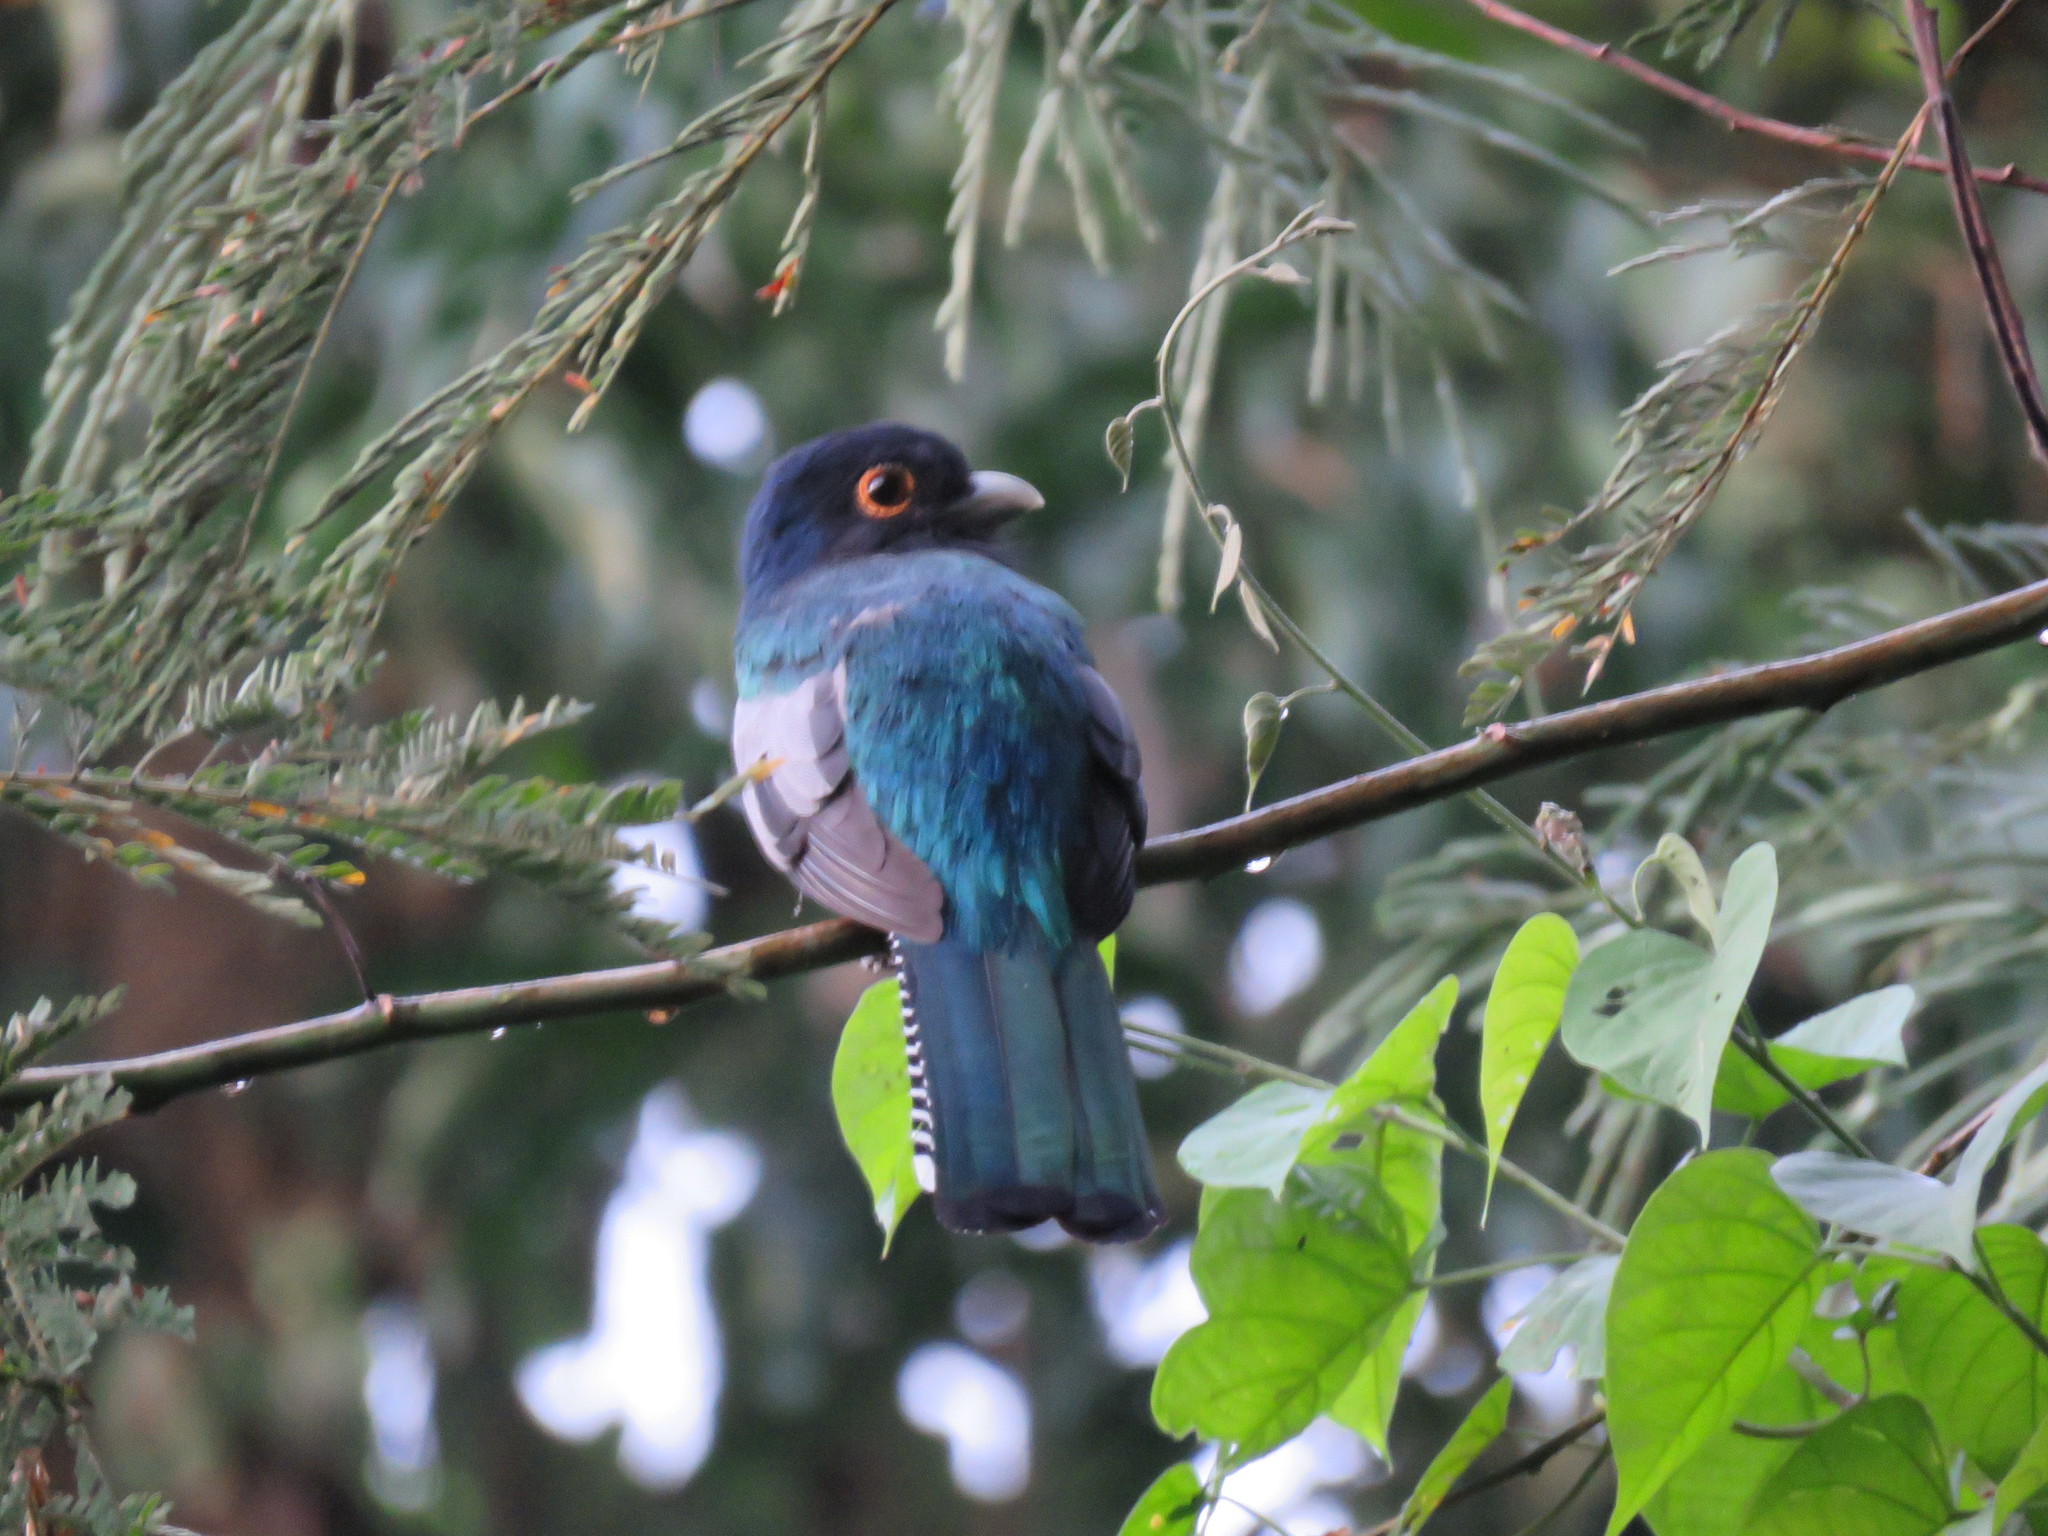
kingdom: Animalia
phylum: Chordata
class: Aves
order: Trogoniformes
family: Trogonidae
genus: Trogon
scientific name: Trogon curucui
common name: Blue-crowned trogon
